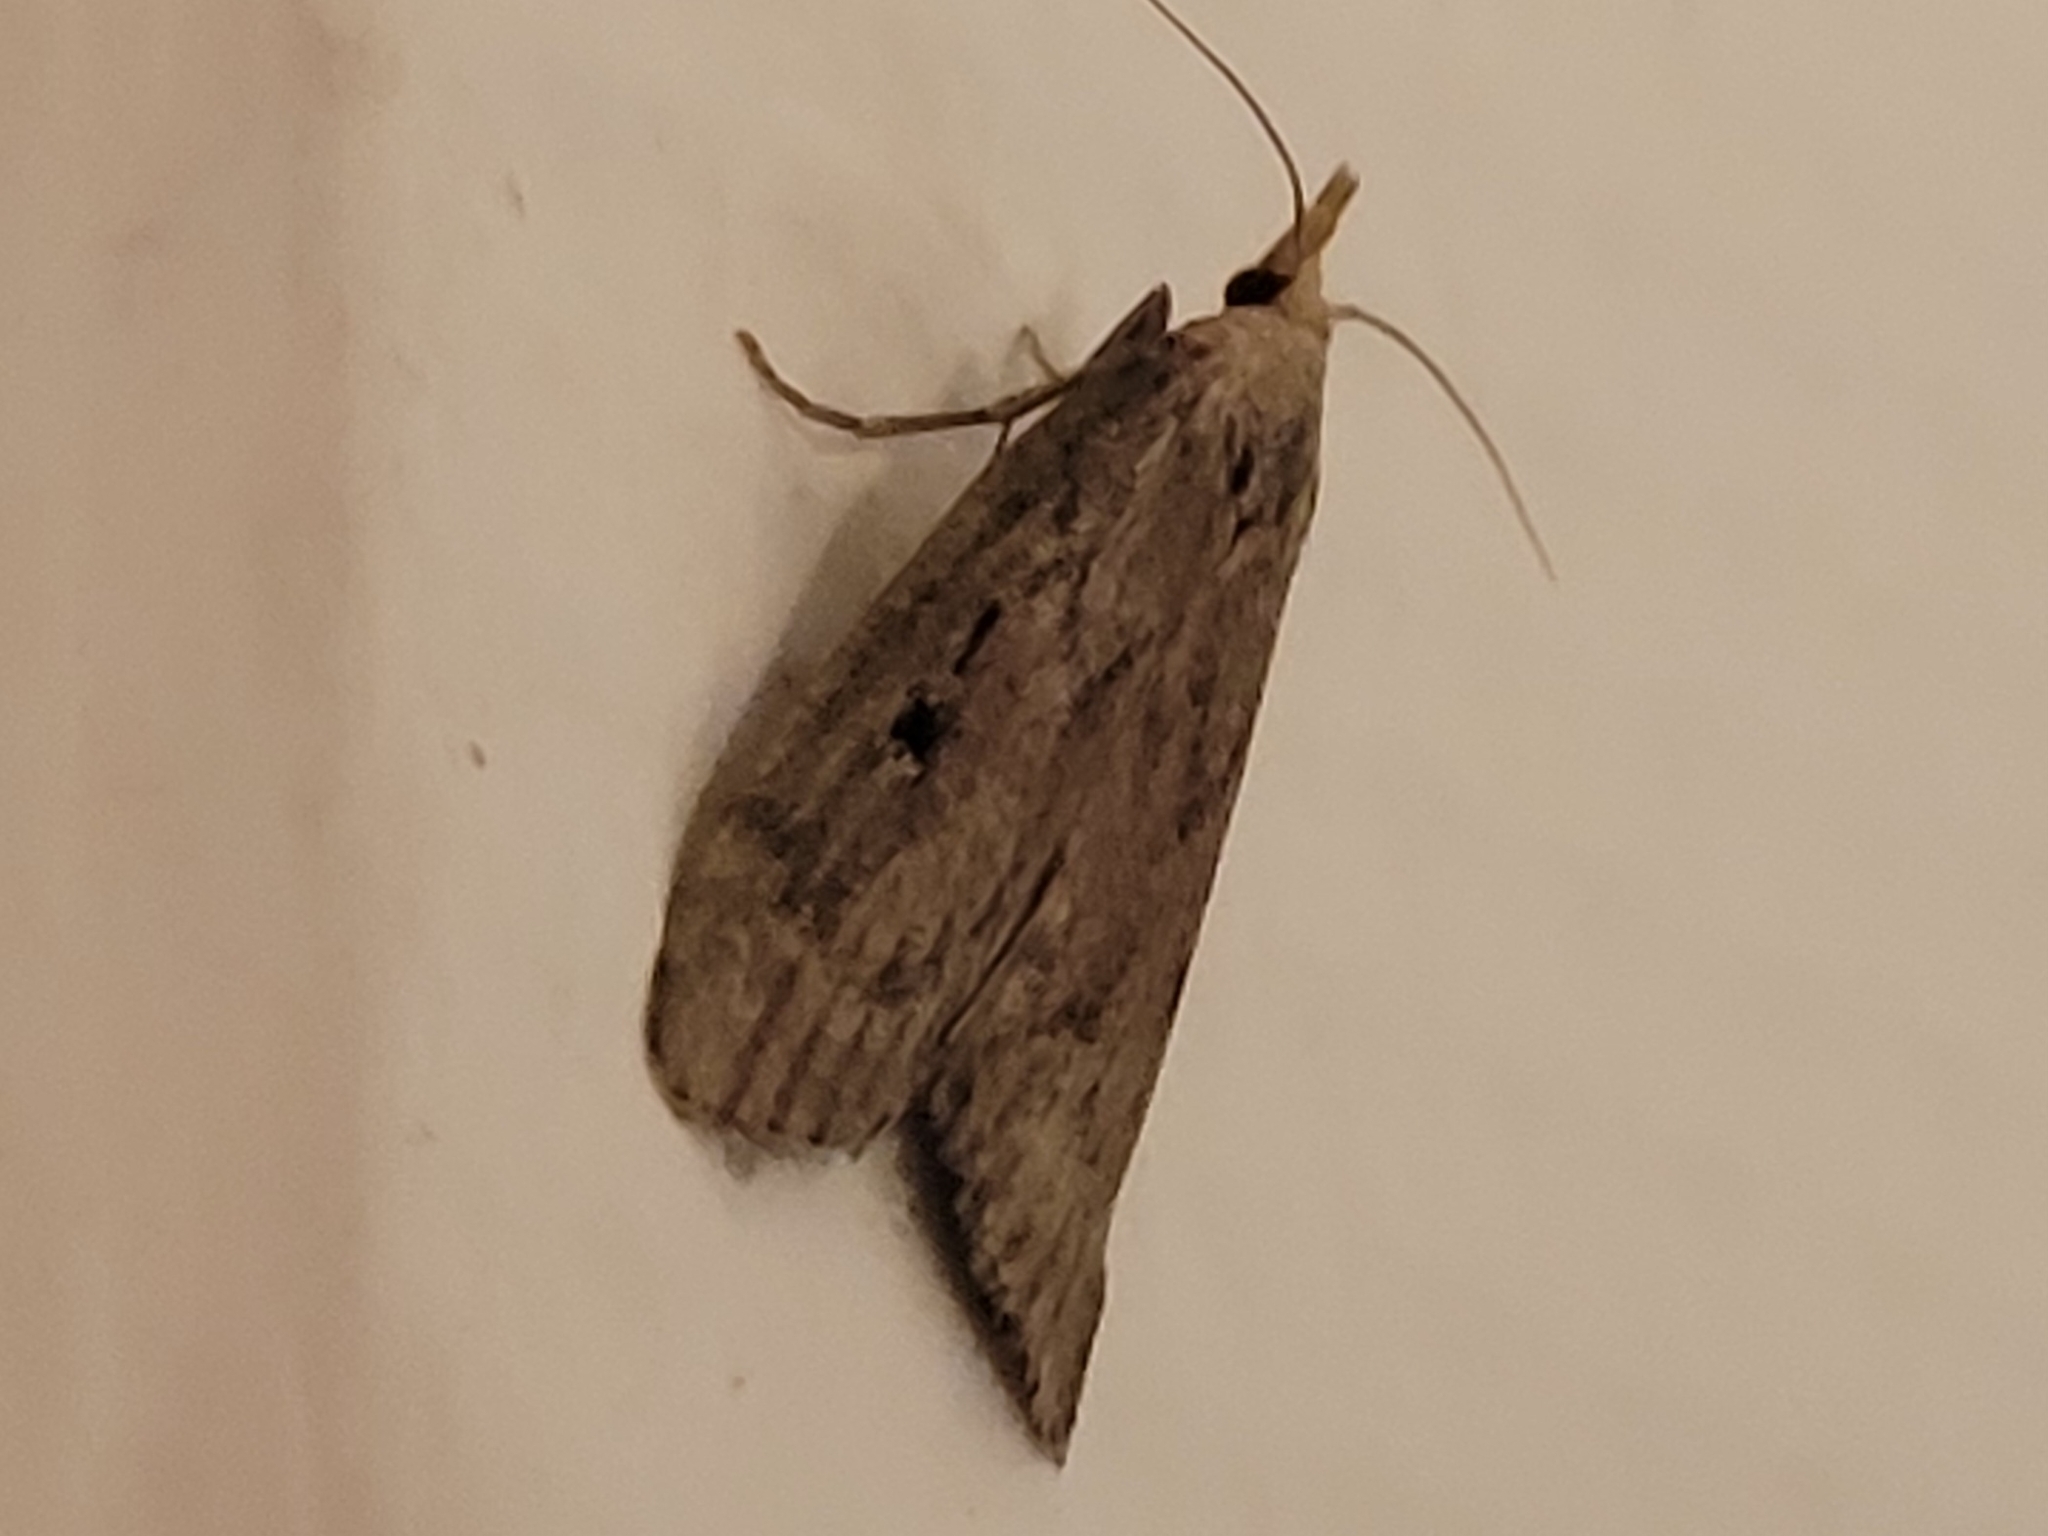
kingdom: Animalia
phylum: Arthropoda
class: Insecta
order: Lepidoptera
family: Pyralidae
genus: Aphomia
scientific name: Aphomia sociella
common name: Bee moth
